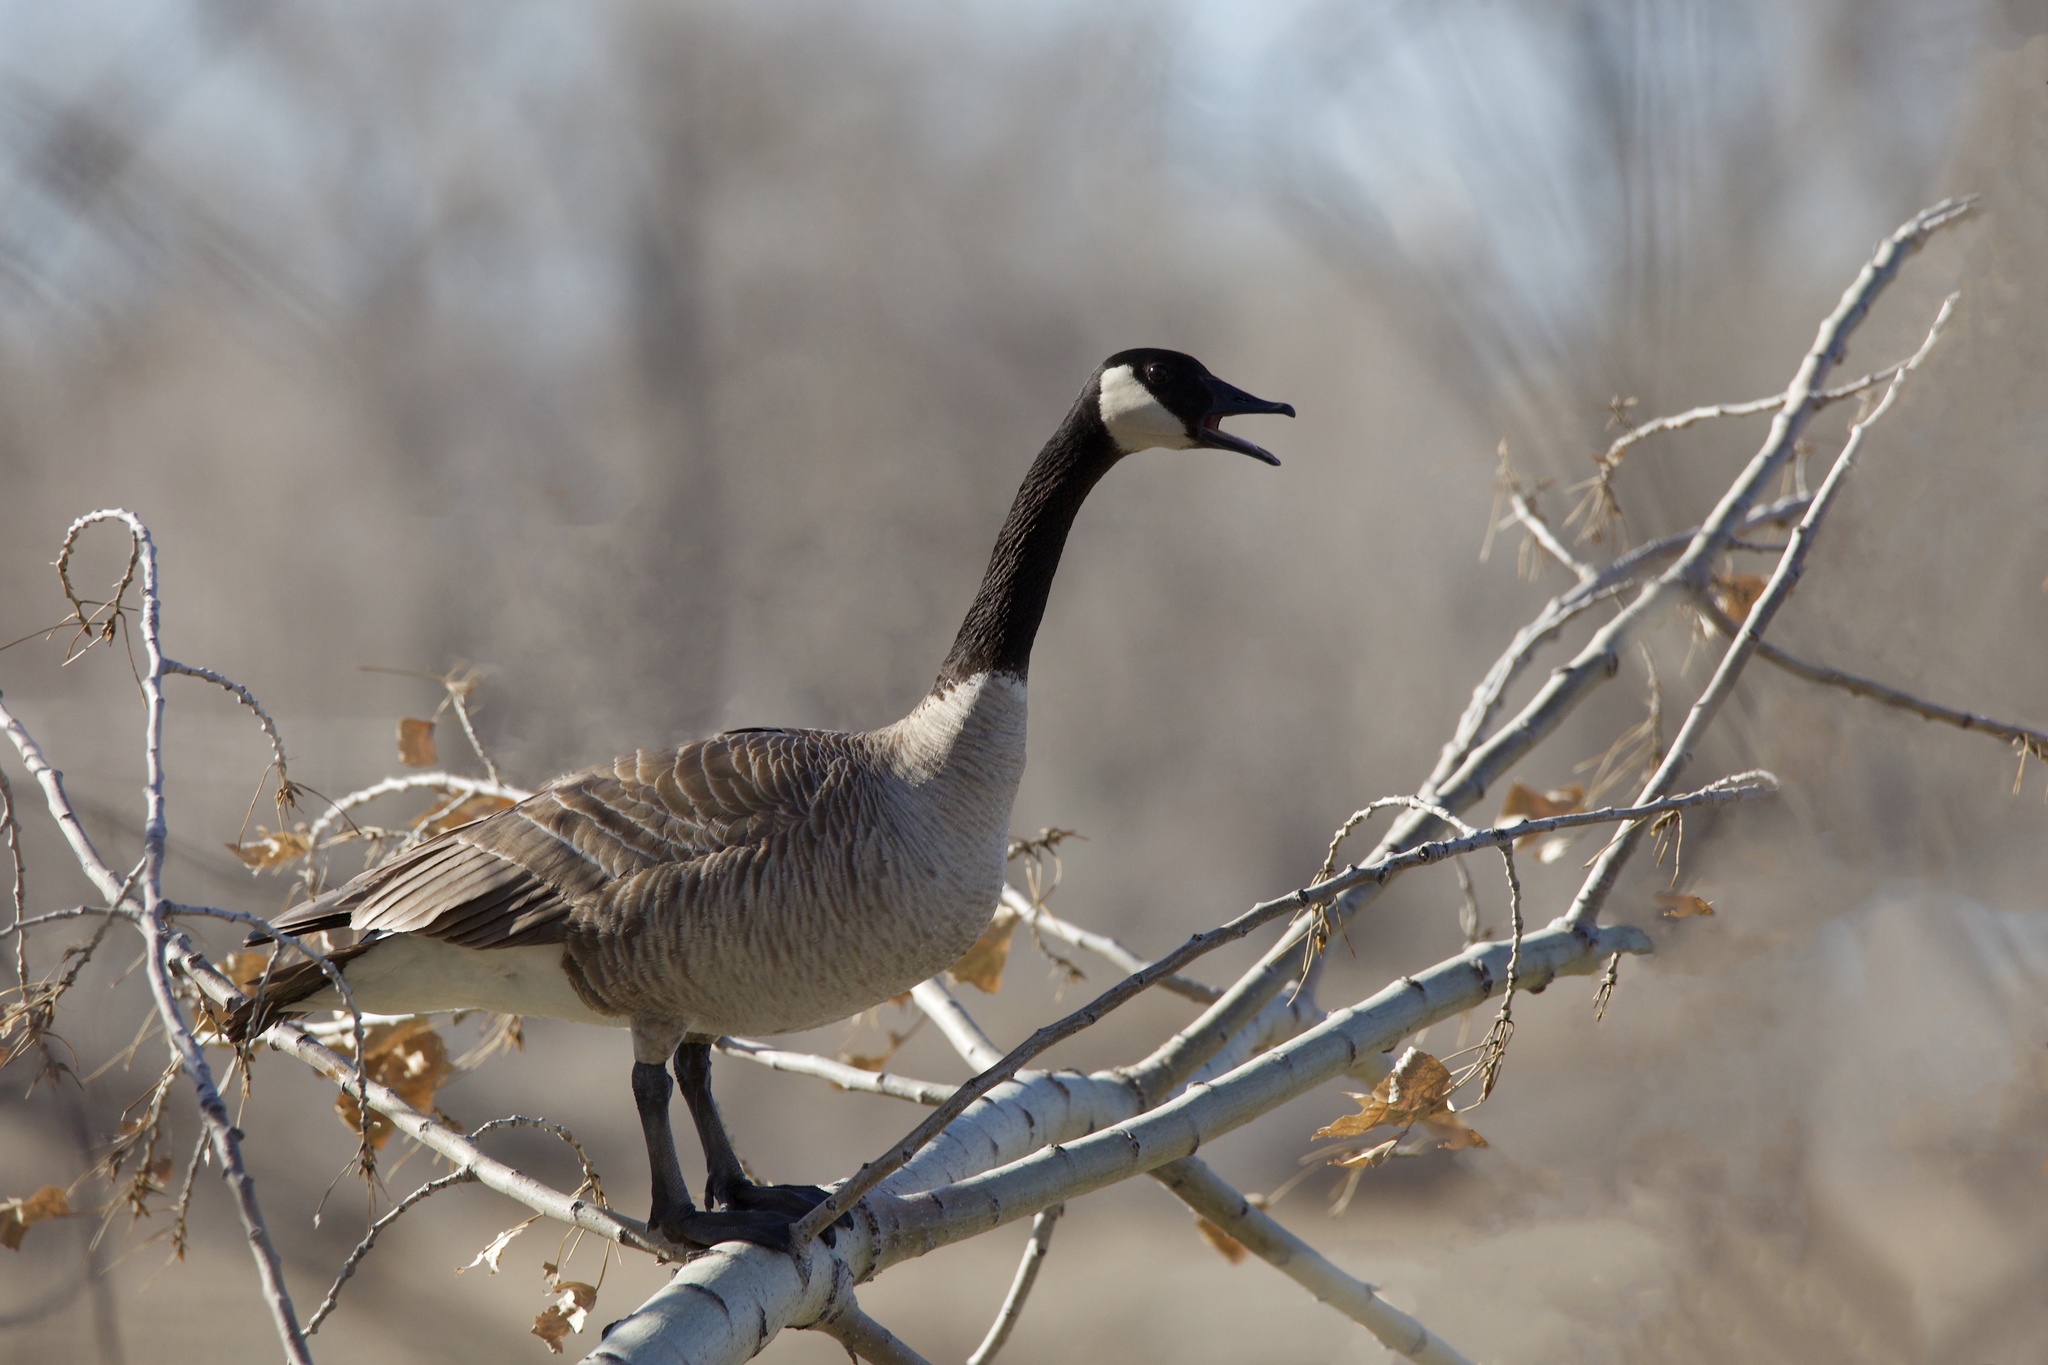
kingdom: Animalia
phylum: Chordata
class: Aves
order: Anseriformes
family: Anatidae
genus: Branta
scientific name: Branta canadensis
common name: Canada goose
